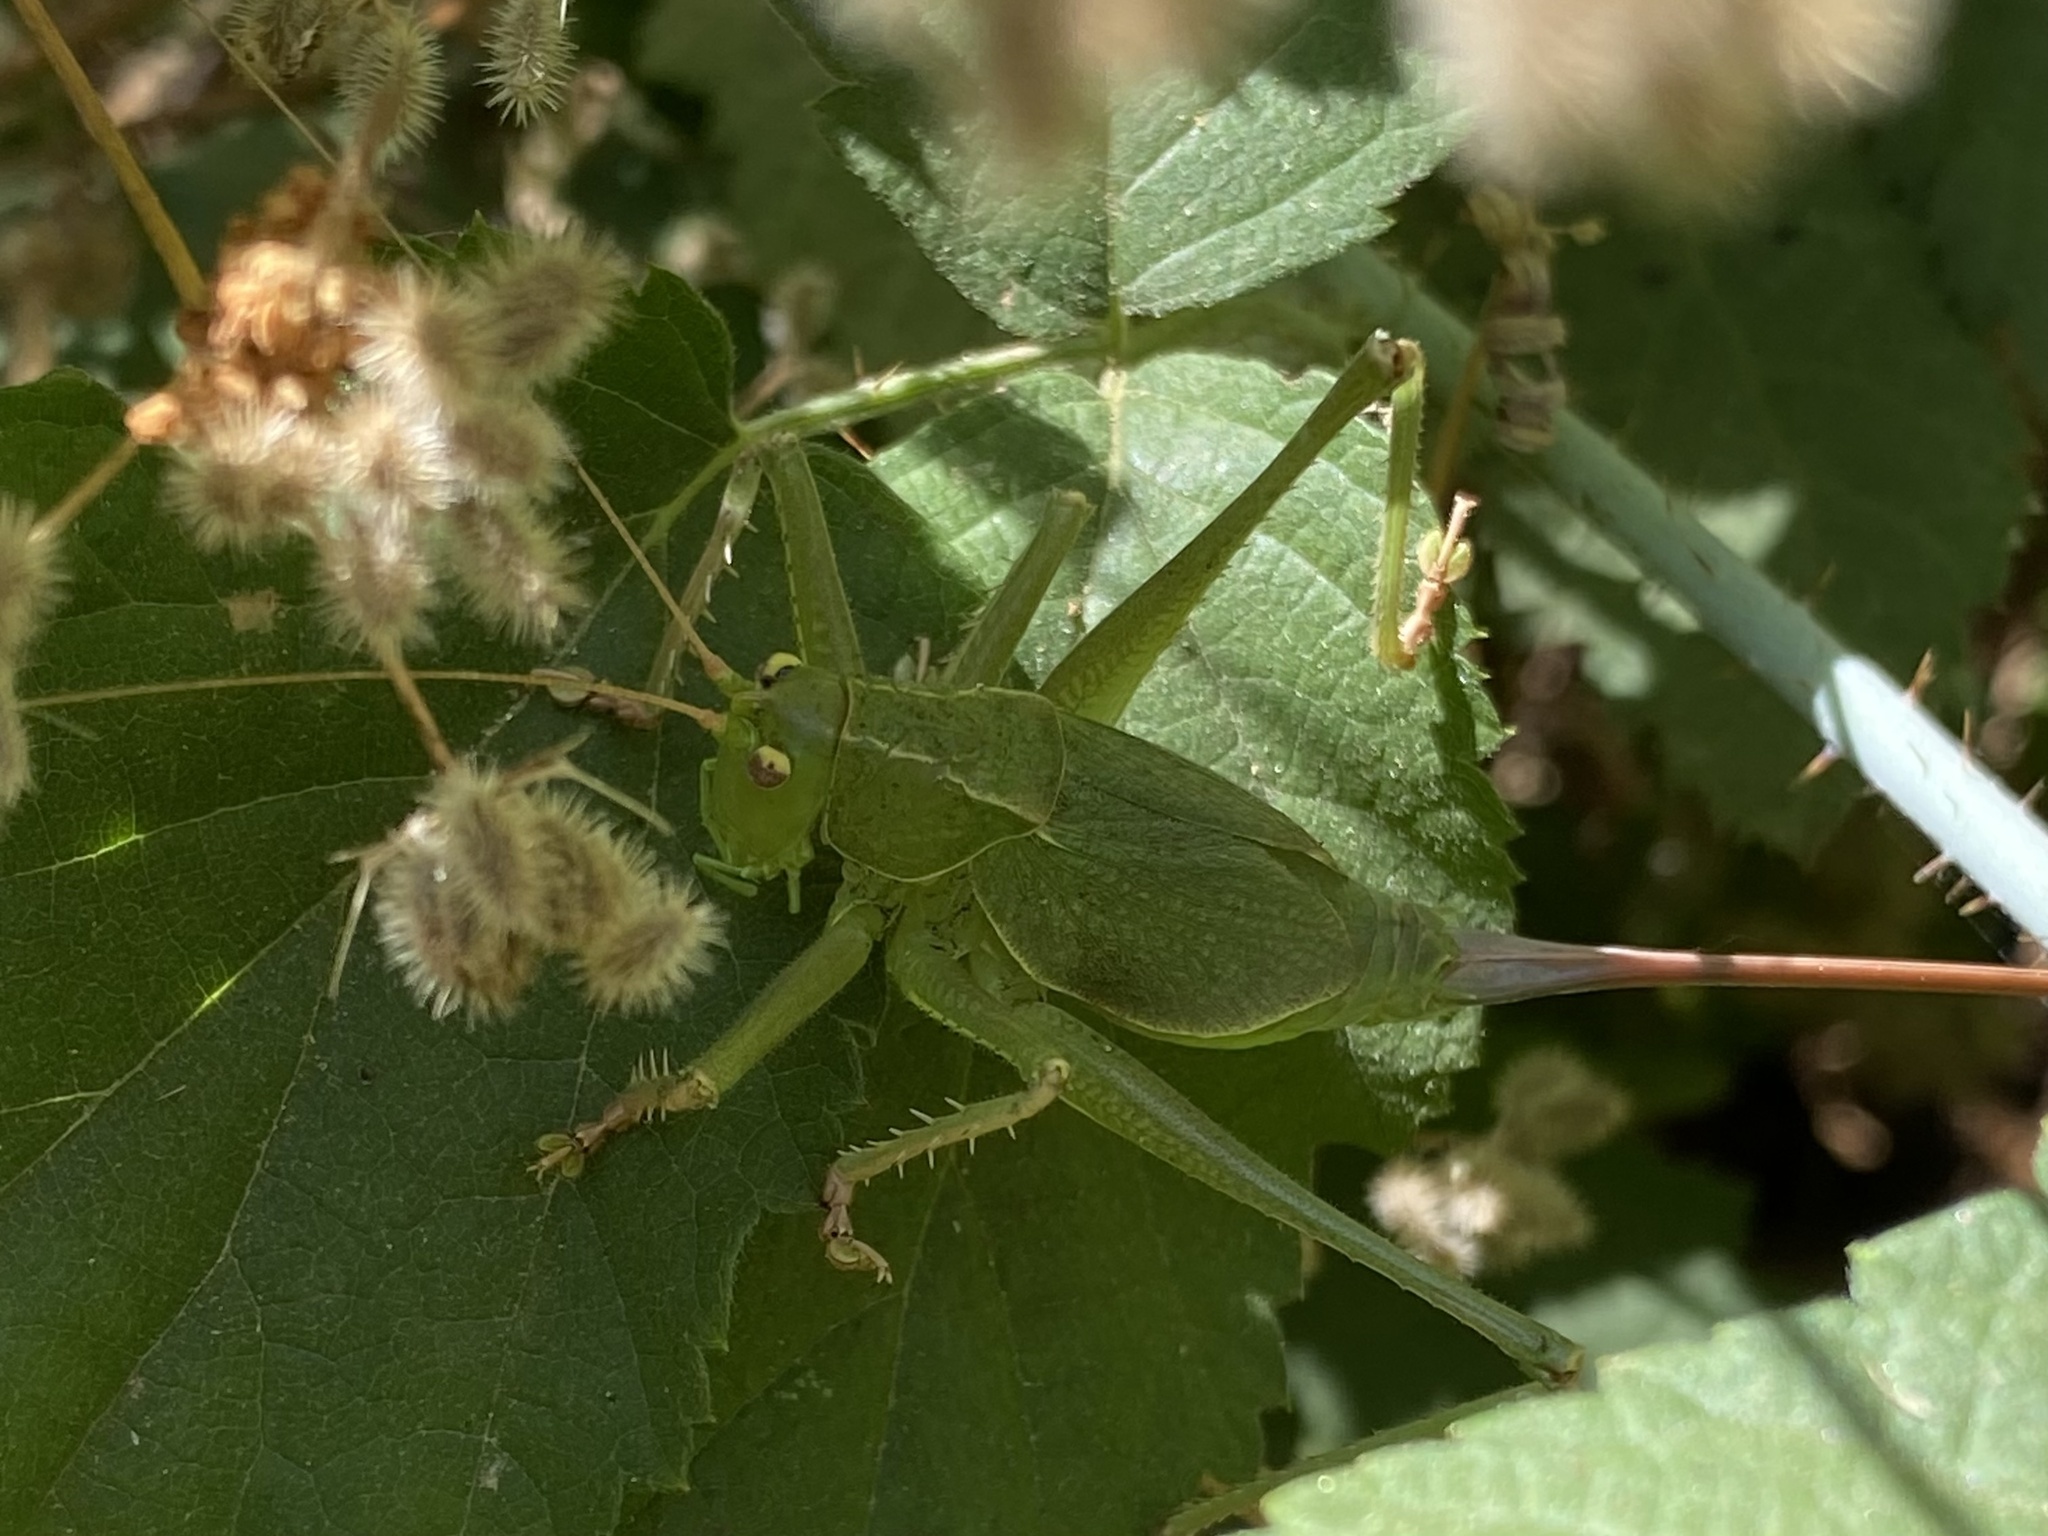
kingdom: Animalia
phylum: Arthropoda
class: Insecta
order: Orthoptera
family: Tettigoniidae
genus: Cyrtophyllicus
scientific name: Cyrtophyllicus chlorum
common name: Chaparral shieldback
